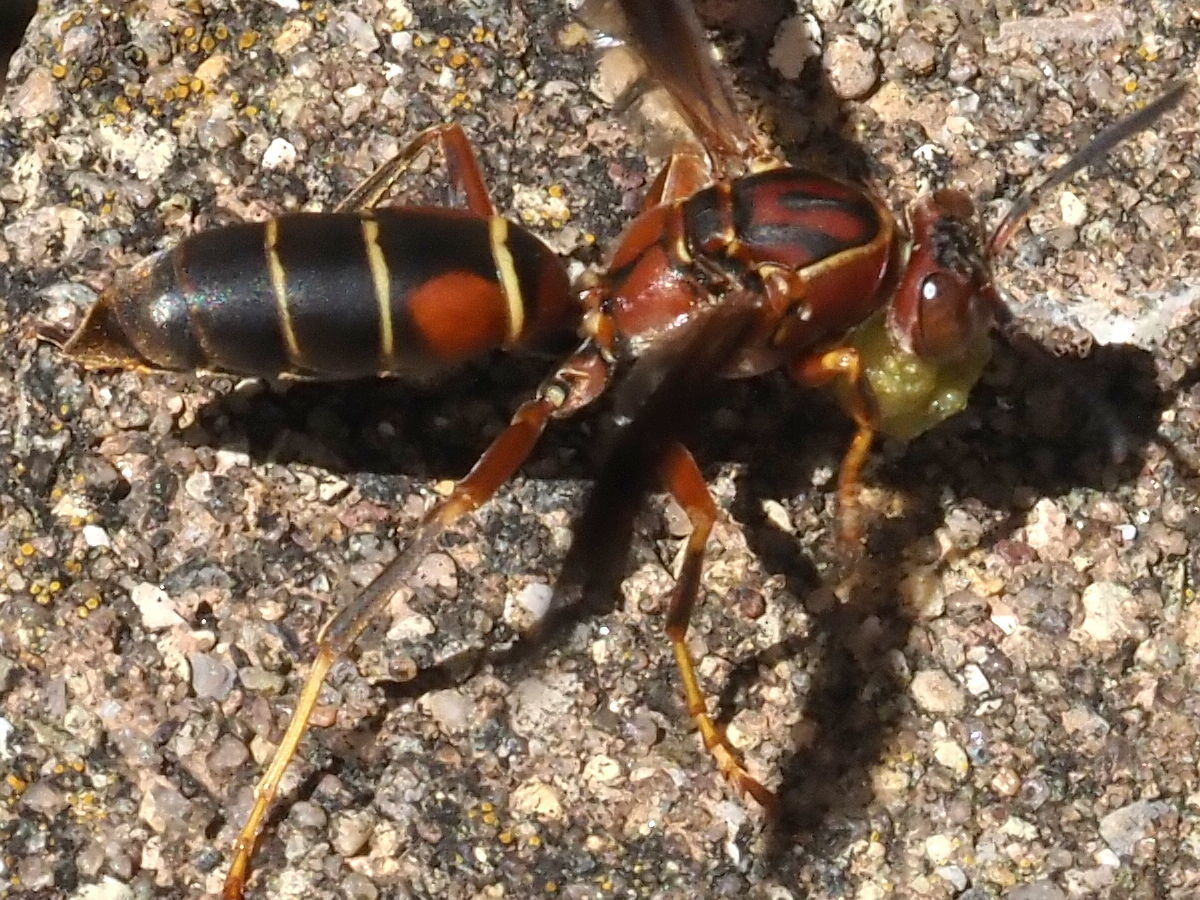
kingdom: Animalia
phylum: Arthropoda
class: Insecta
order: Hymenoptera
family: Eumenidae
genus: Polistes
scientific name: Polistes fuscatus
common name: Dark paper wasp
